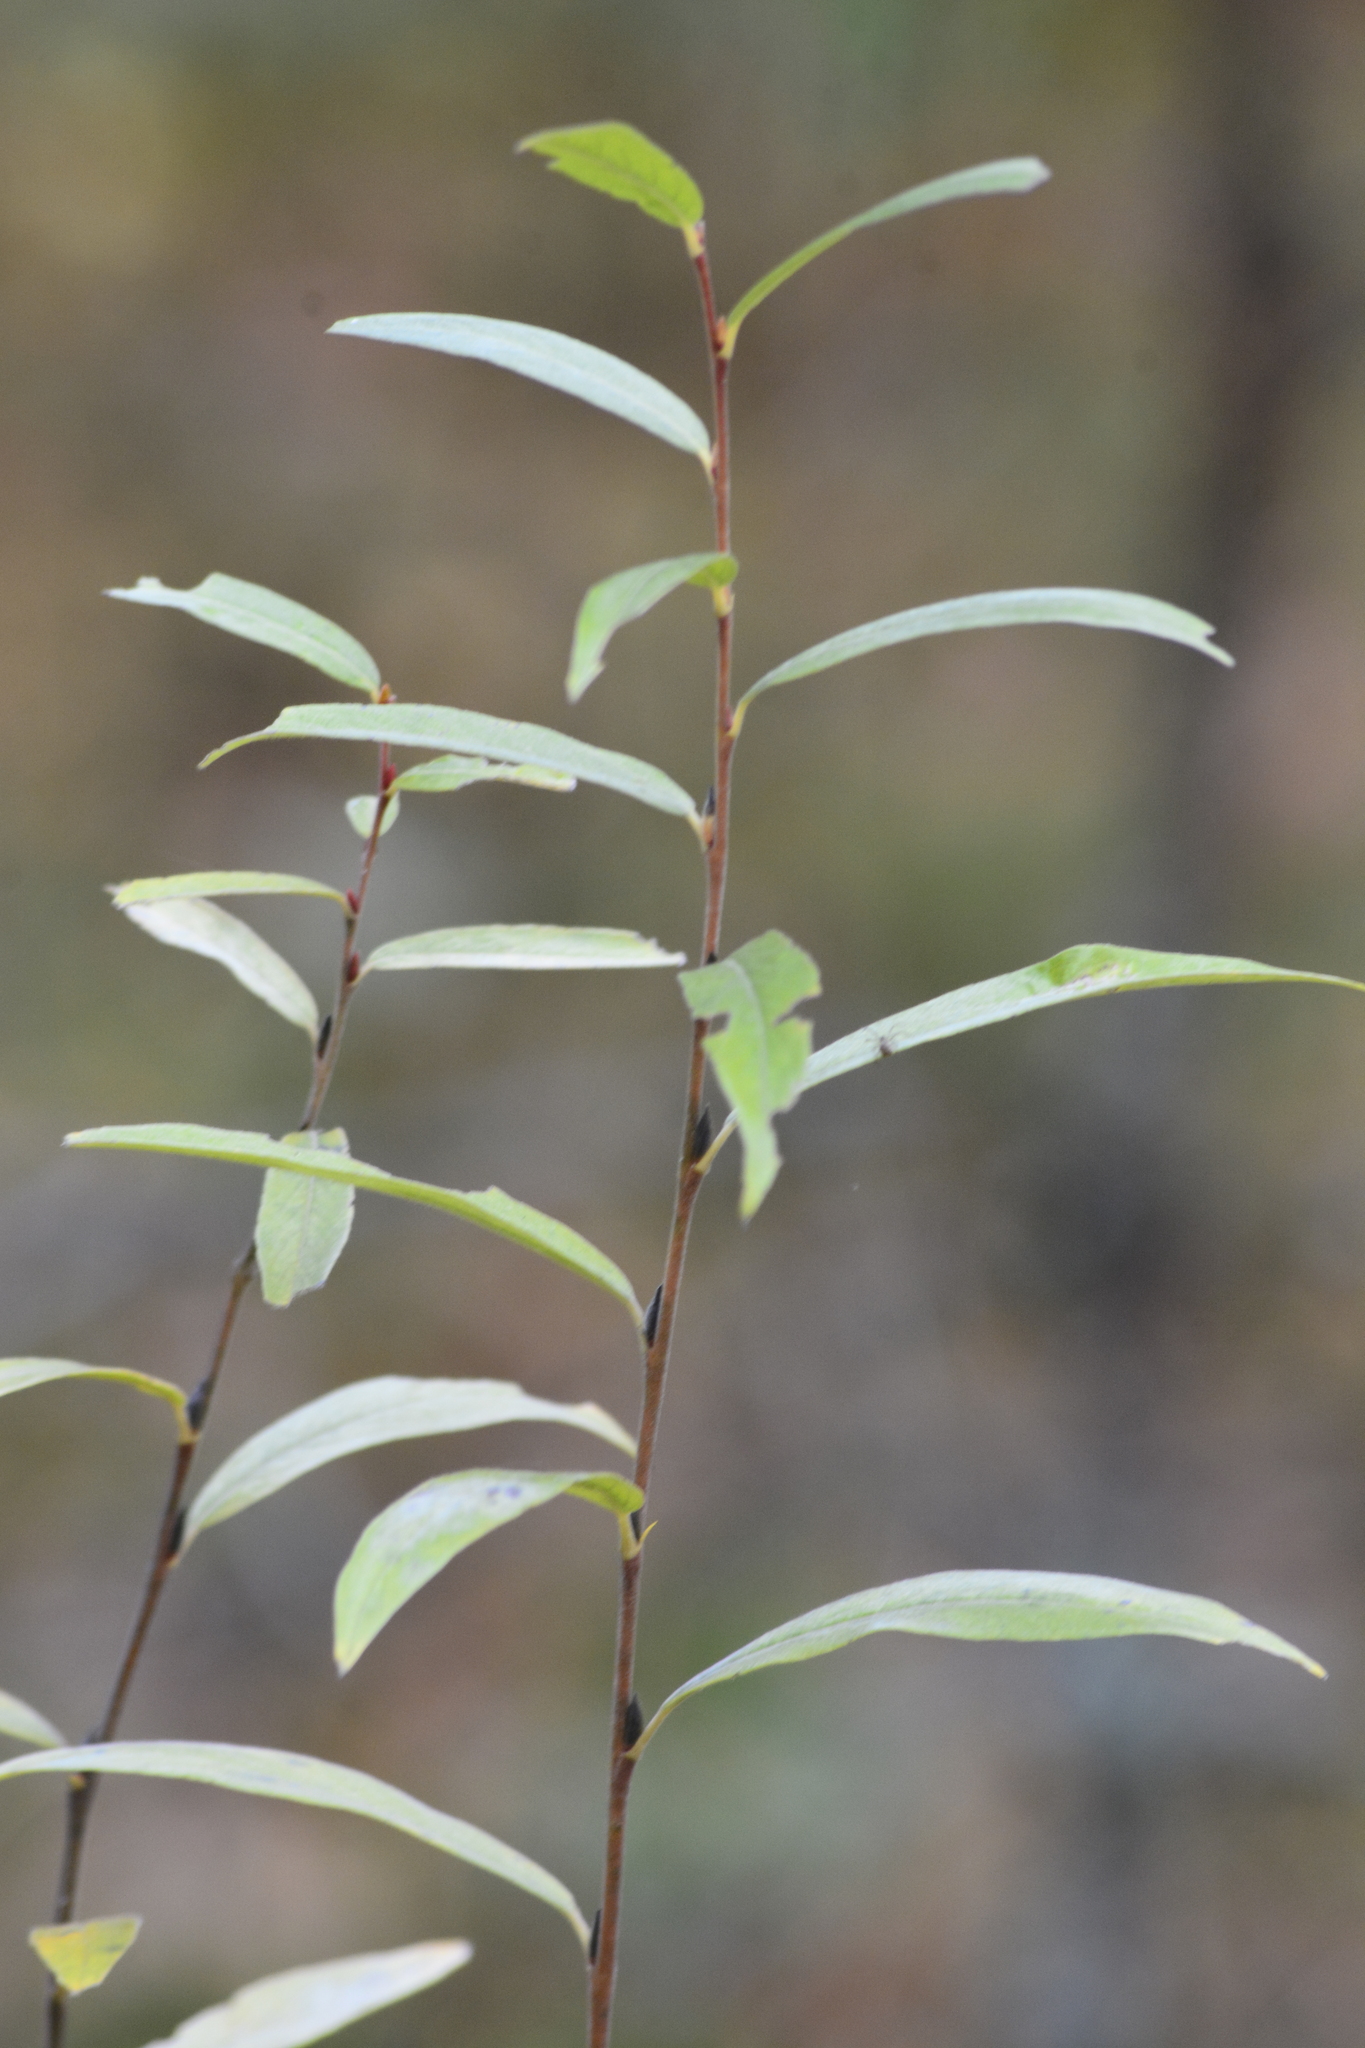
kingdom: Plantae
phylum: Tracheophyta
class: Magnoliopsida
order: Malpighiales
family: Salicaceae
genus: Salix
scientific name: Salix rosmarinifolia
